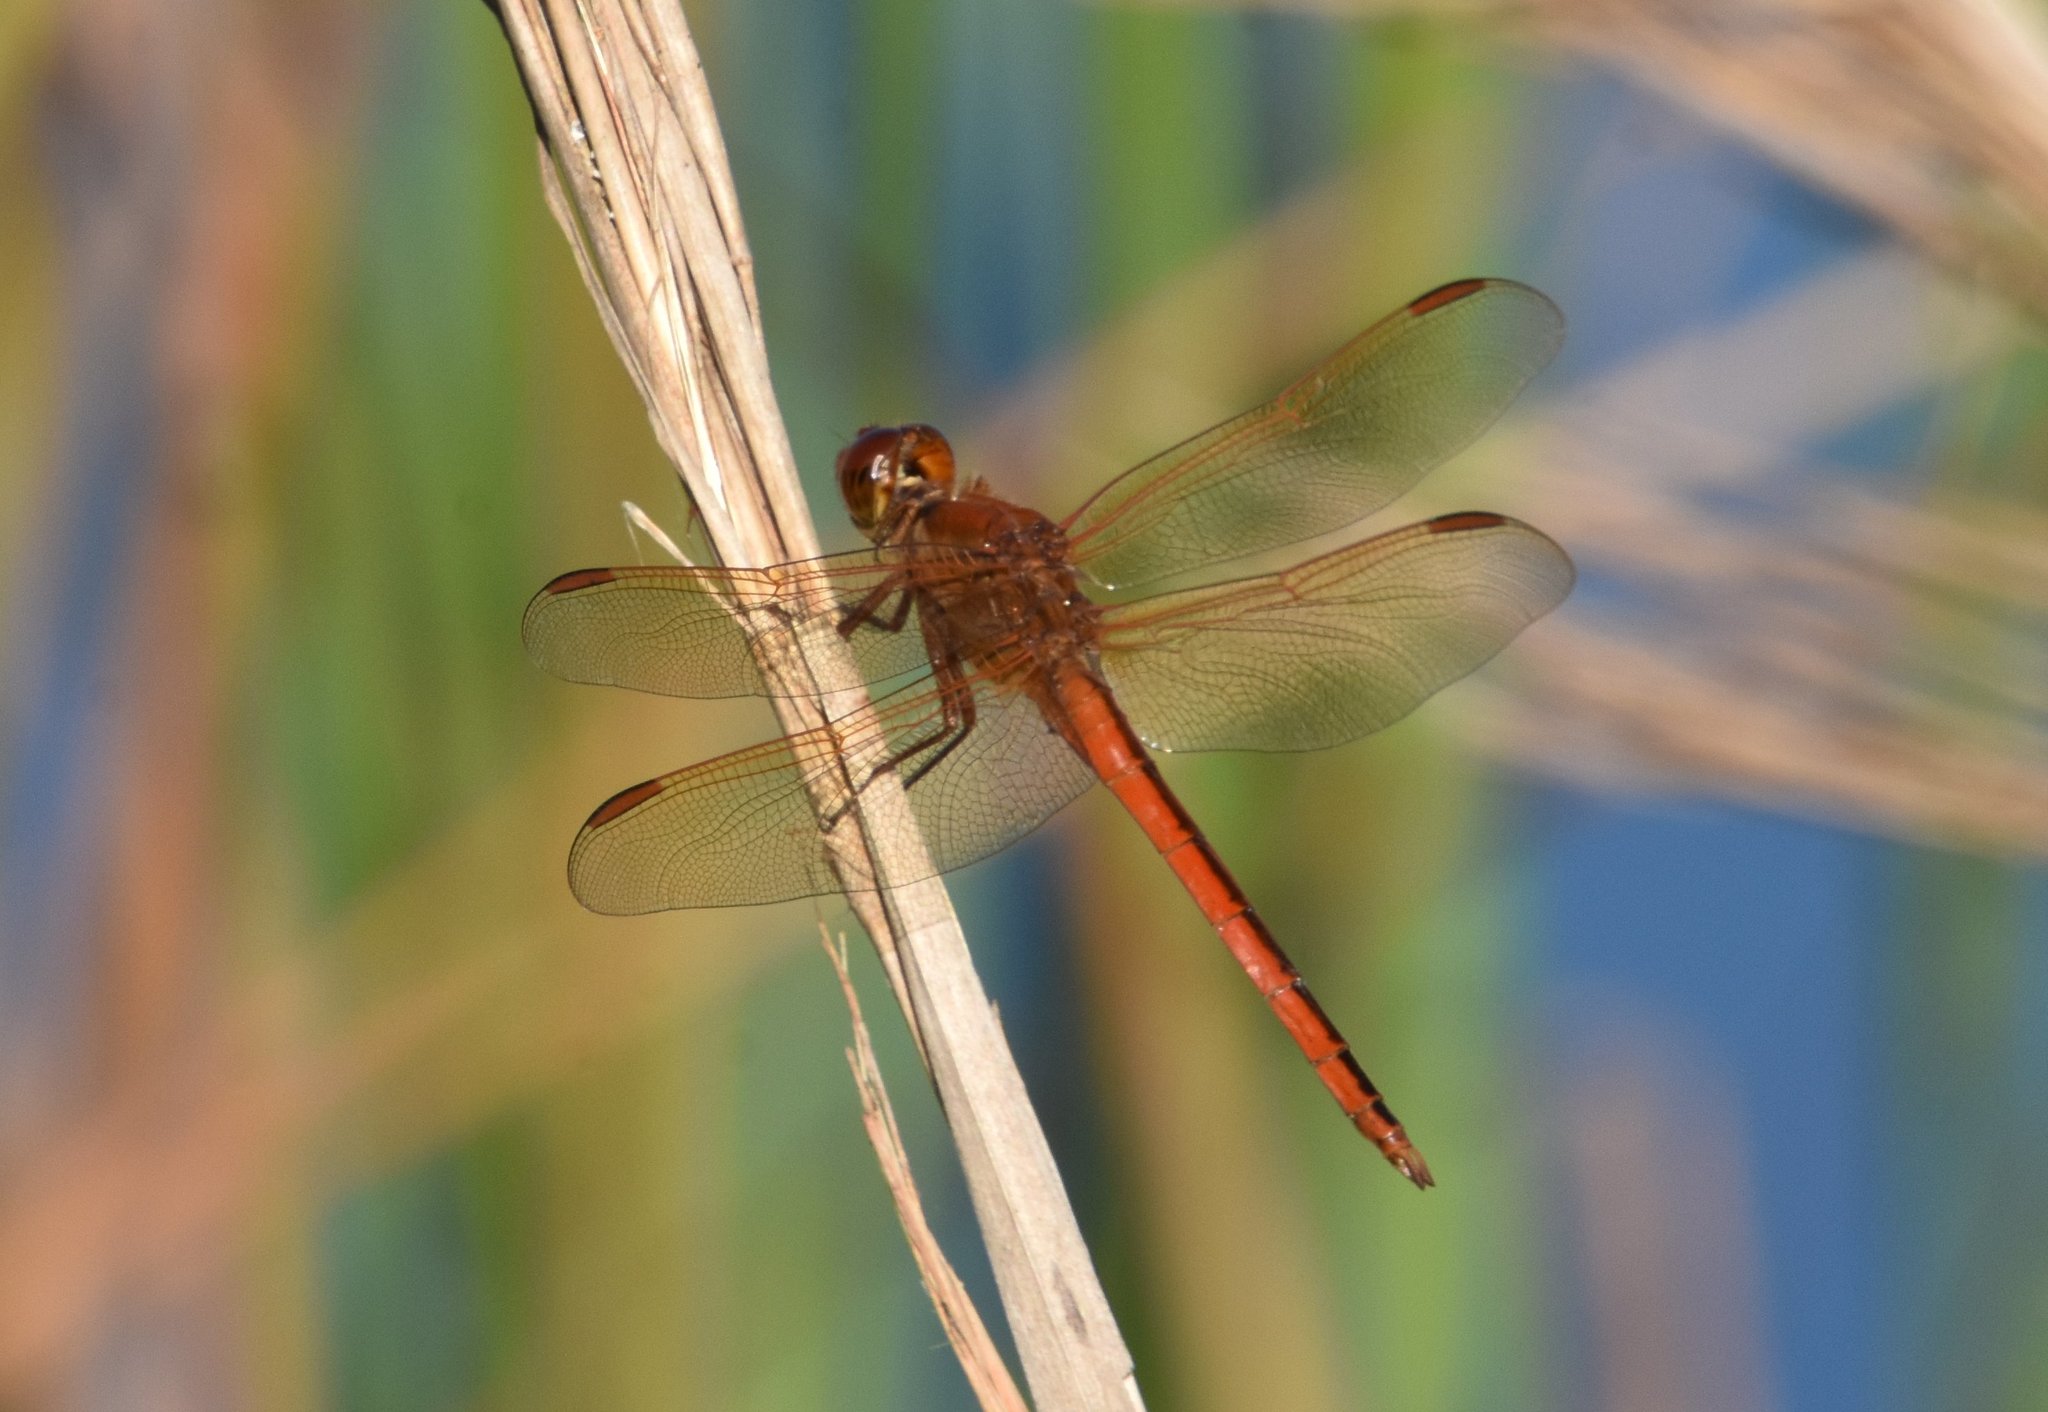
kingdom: Animalia
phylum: Arthropoda
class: Insecta
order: Odonata
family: Libellulidae
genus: Libellula
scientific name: Libellula needhami
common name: Needham's skimmer
